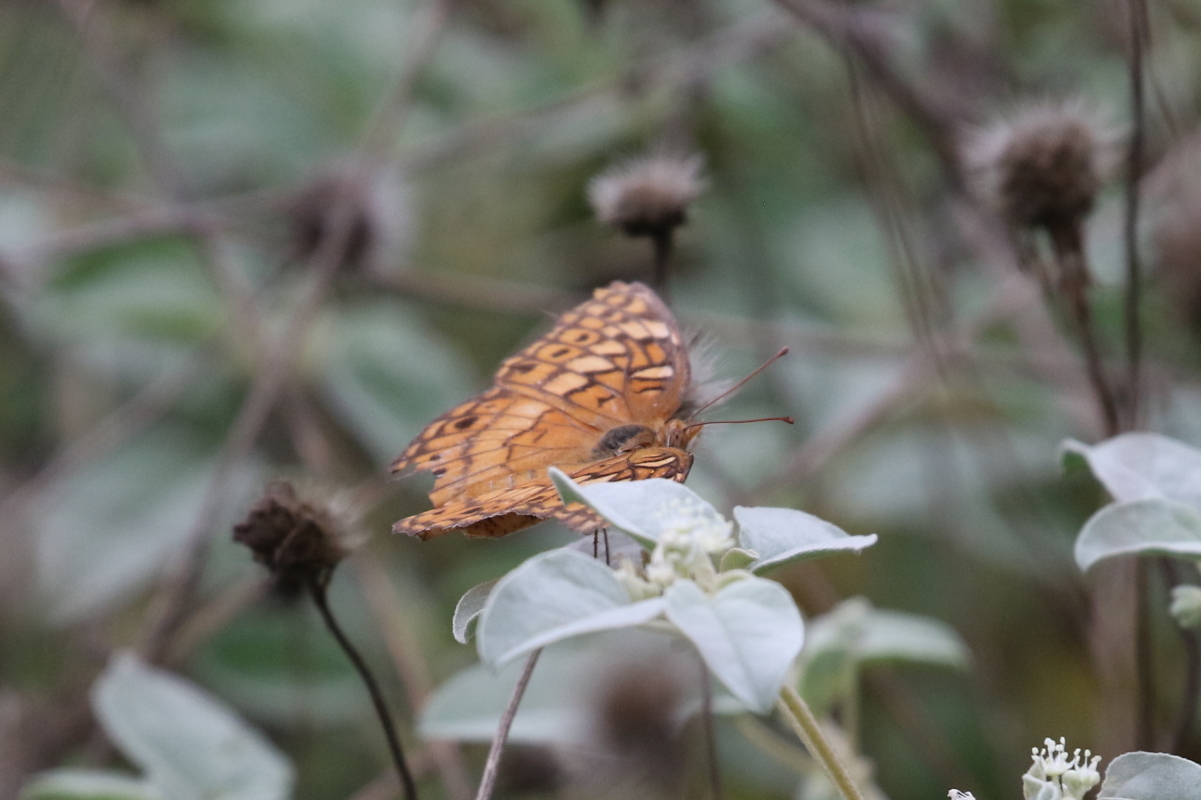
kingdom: Animalia
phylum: Arthropoda
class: Insecta
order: Lepidoptera
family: Nymphalidae
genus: Euptoieta
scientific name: Euptoieta claudia
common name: Variegated fritillary
